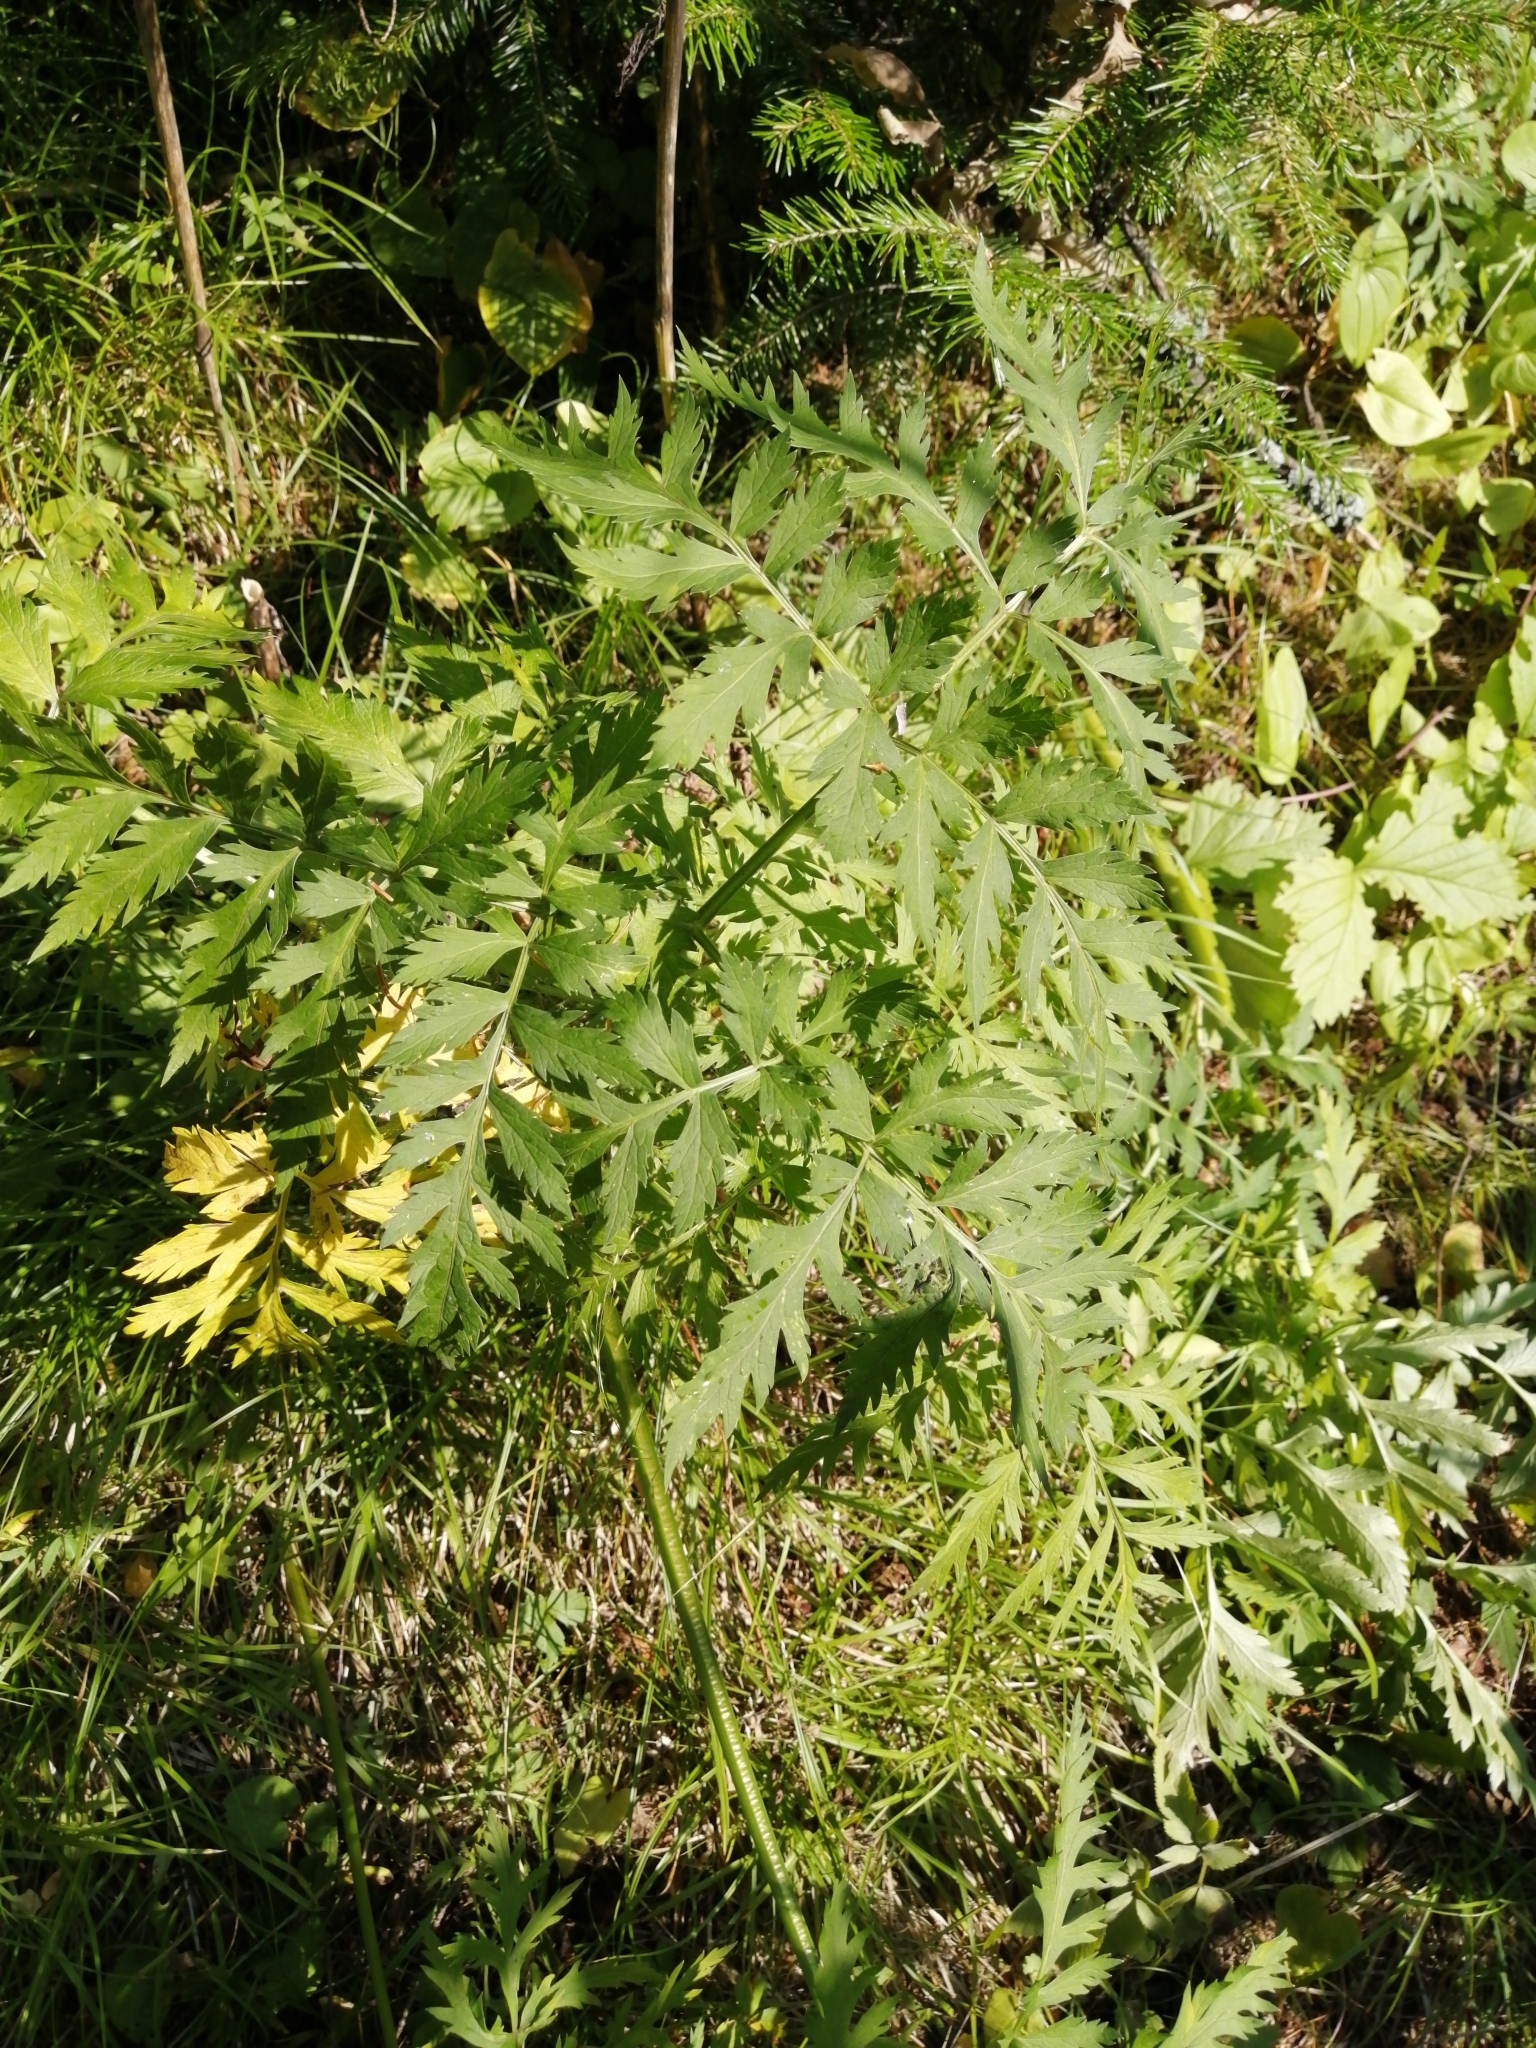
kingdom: Plantae
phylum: Tracheophyta
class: Magnoliopsida
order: Apiales
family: Apiaceae
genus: Pleurospermum
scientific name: Pleurospermum uralense
